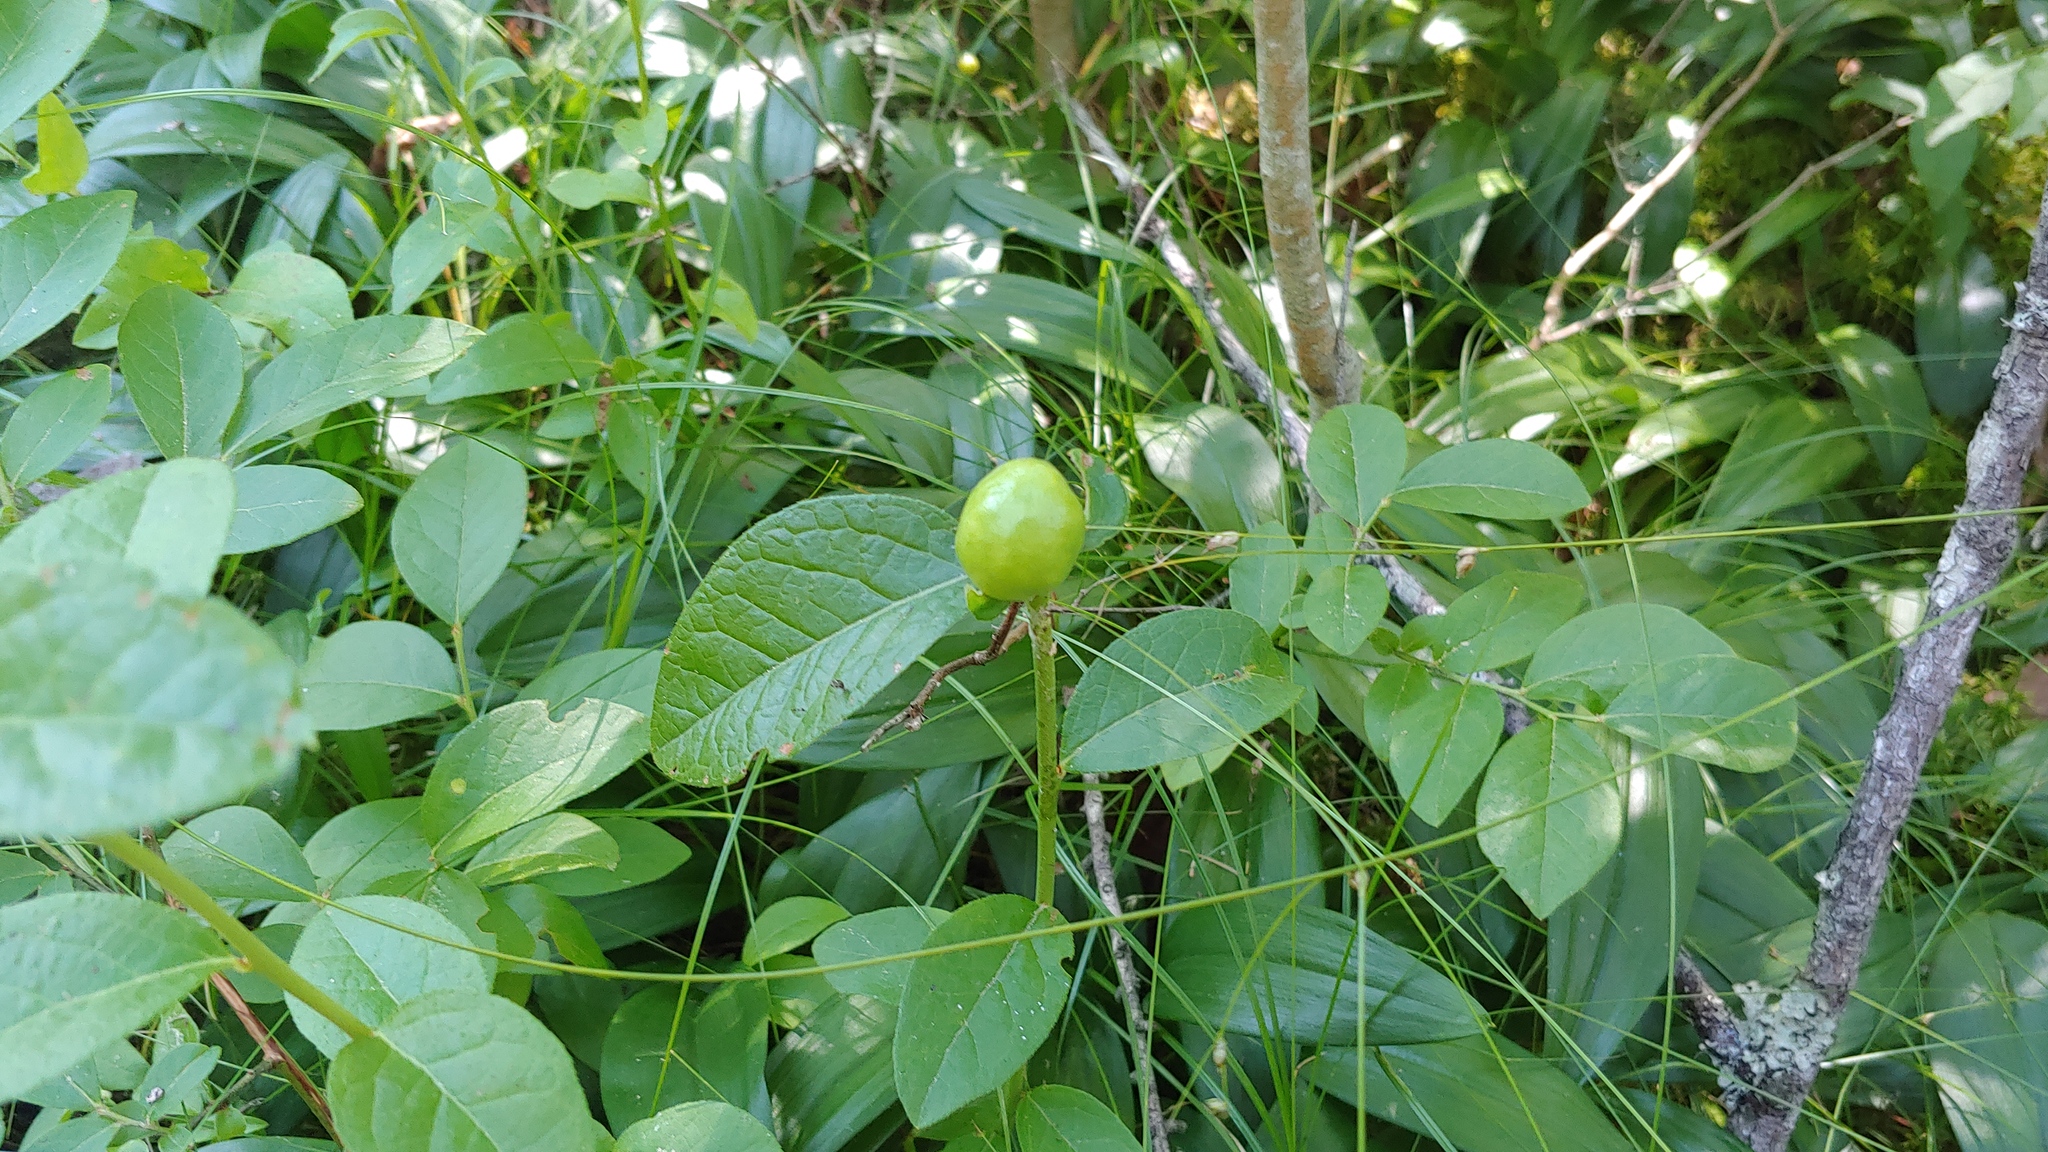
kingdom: Animalia
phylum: Arthropoda
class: Insecta
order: Hymenoptera
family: Pteromalidae
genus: Hemadas
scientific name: Hemadas nubilipennis
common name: Blueberry stem gall wasp
